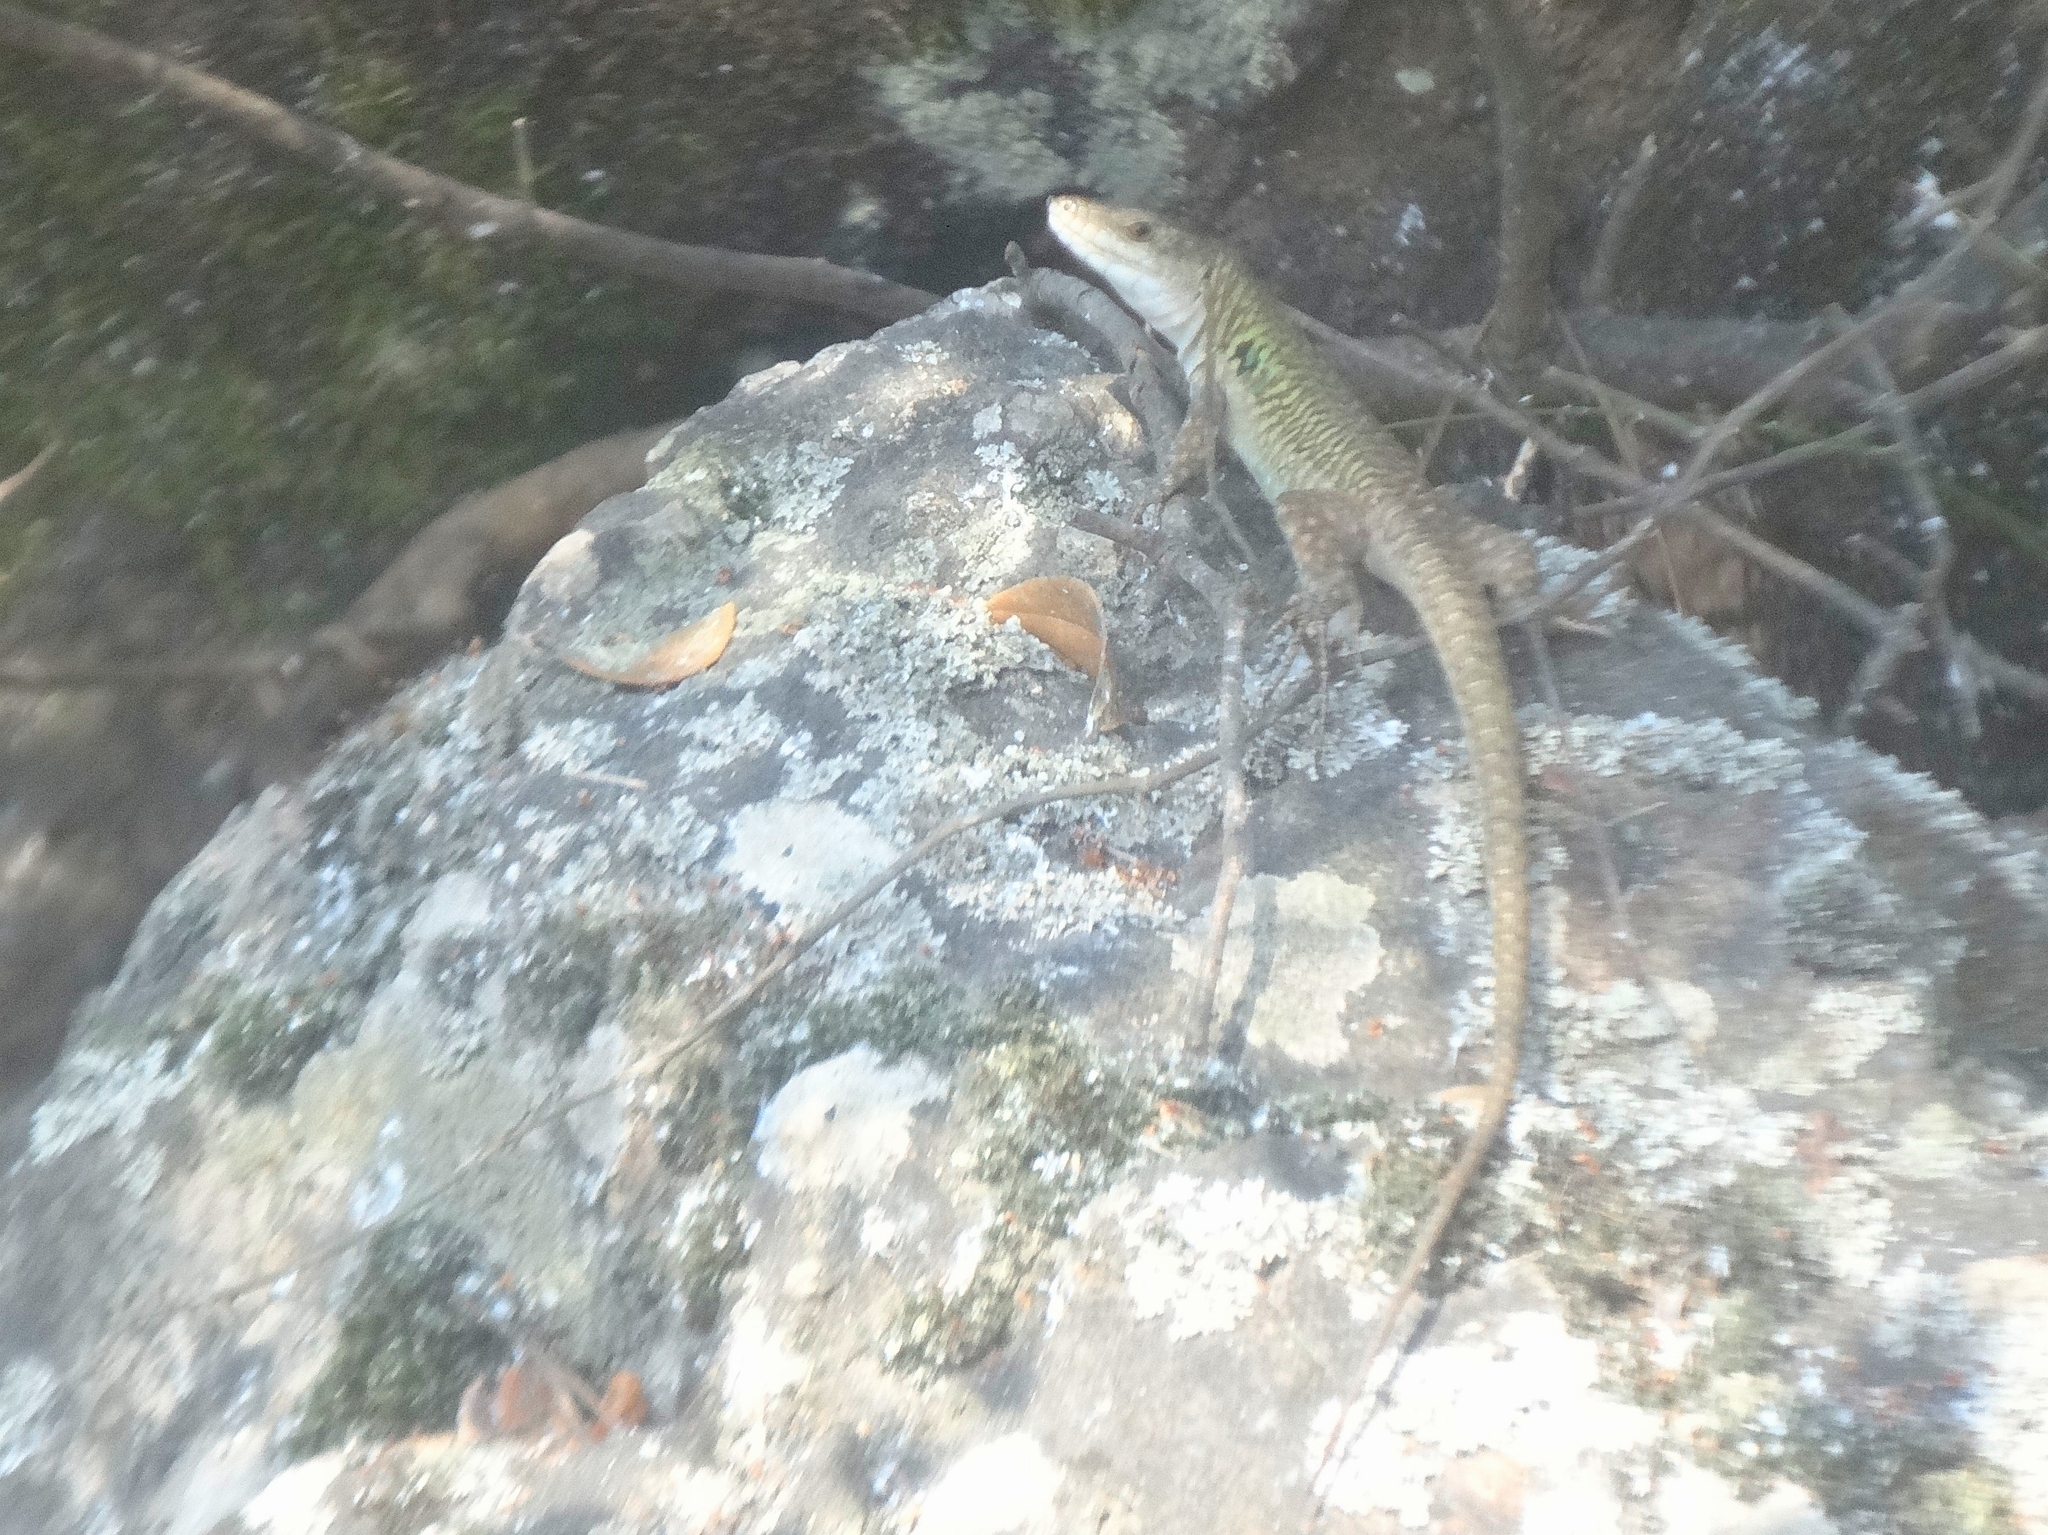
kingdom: Animalia
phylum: Chordata
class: Squamata
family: Lacertidae
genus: Podarcis
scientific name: Podarcis siculus
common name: Italian wall lizard
